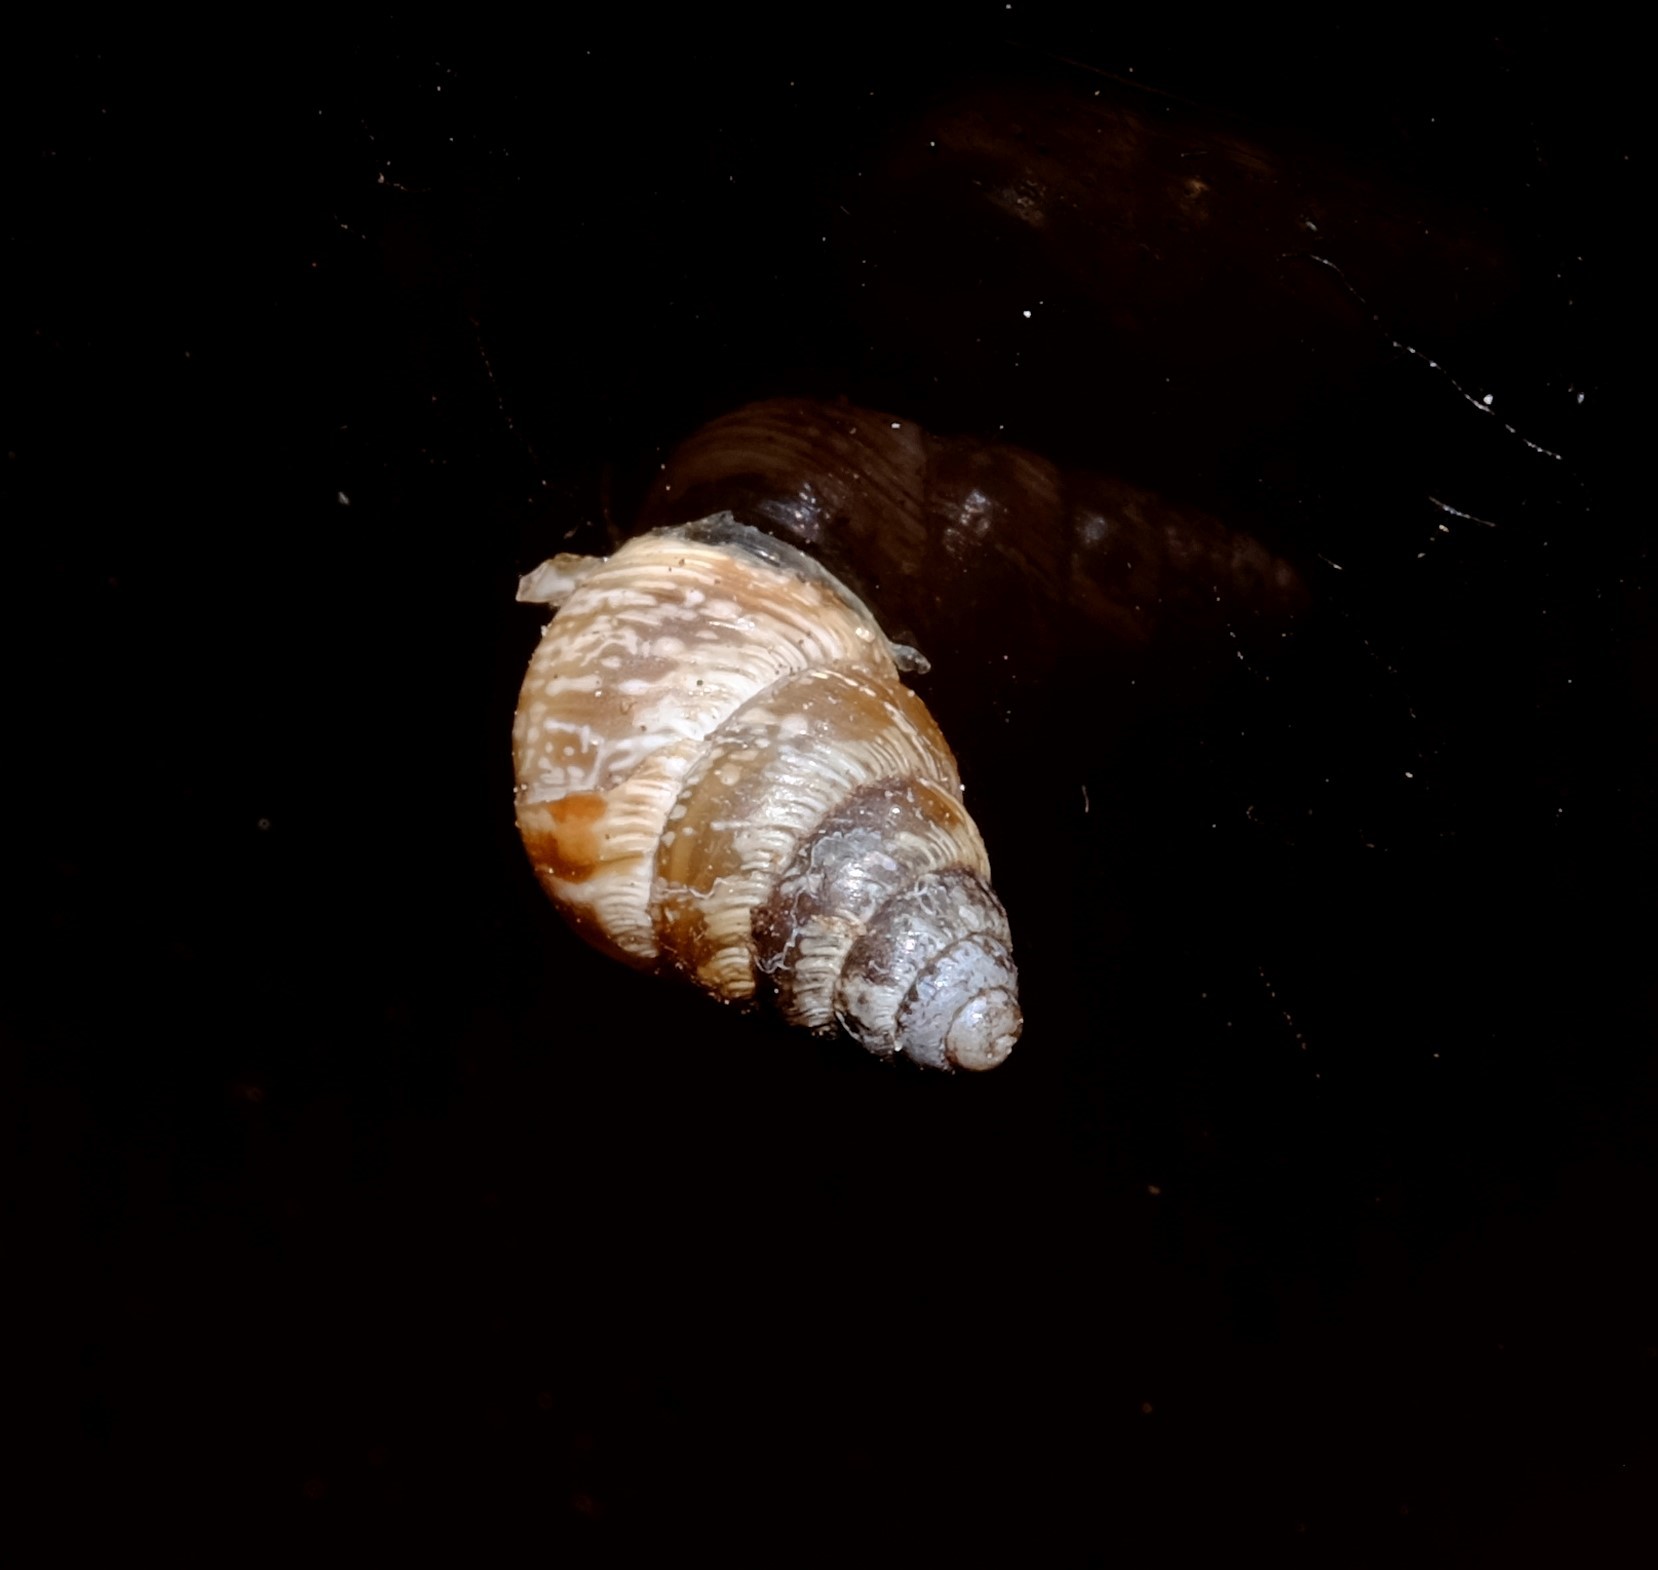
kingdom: Animalia
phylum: Mollusca
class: Gastropoda
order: Stylommatophora
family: Geomitridae
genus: Cochlicella
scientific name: Cochlicella barbara
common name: Potbellied helicellid
